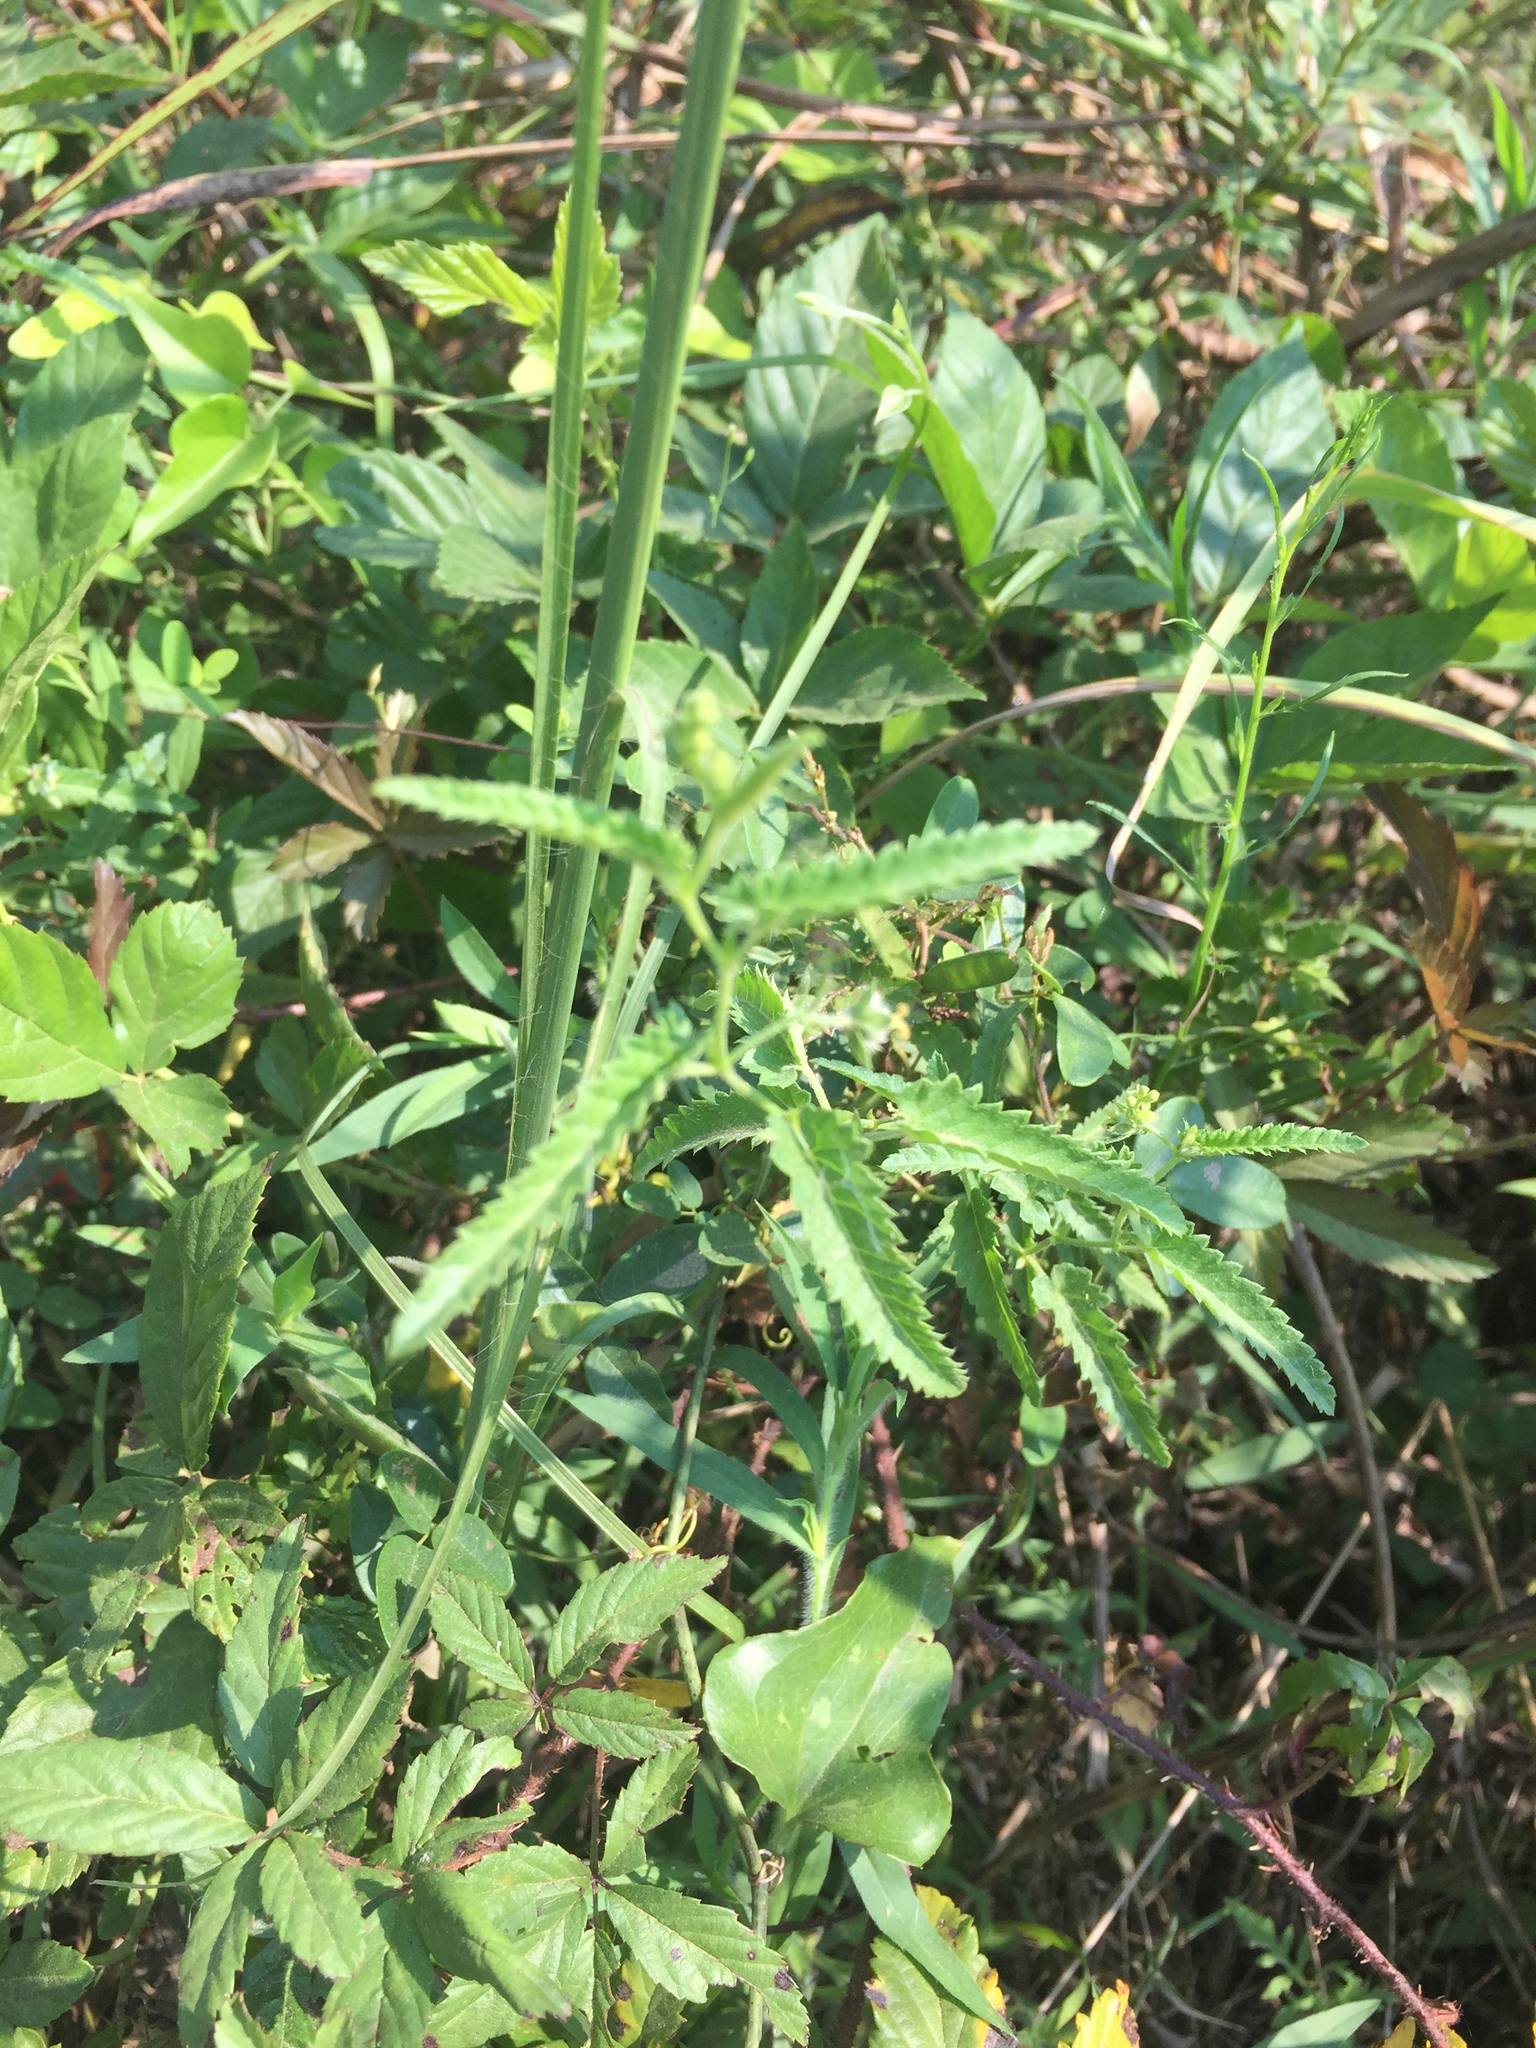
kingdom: Plantae
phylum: Tracheophyta
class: Magnoliopsida
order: Malpighiales
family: Euphorbiaceae
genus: Tragia
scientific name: Tragia urticifolia
